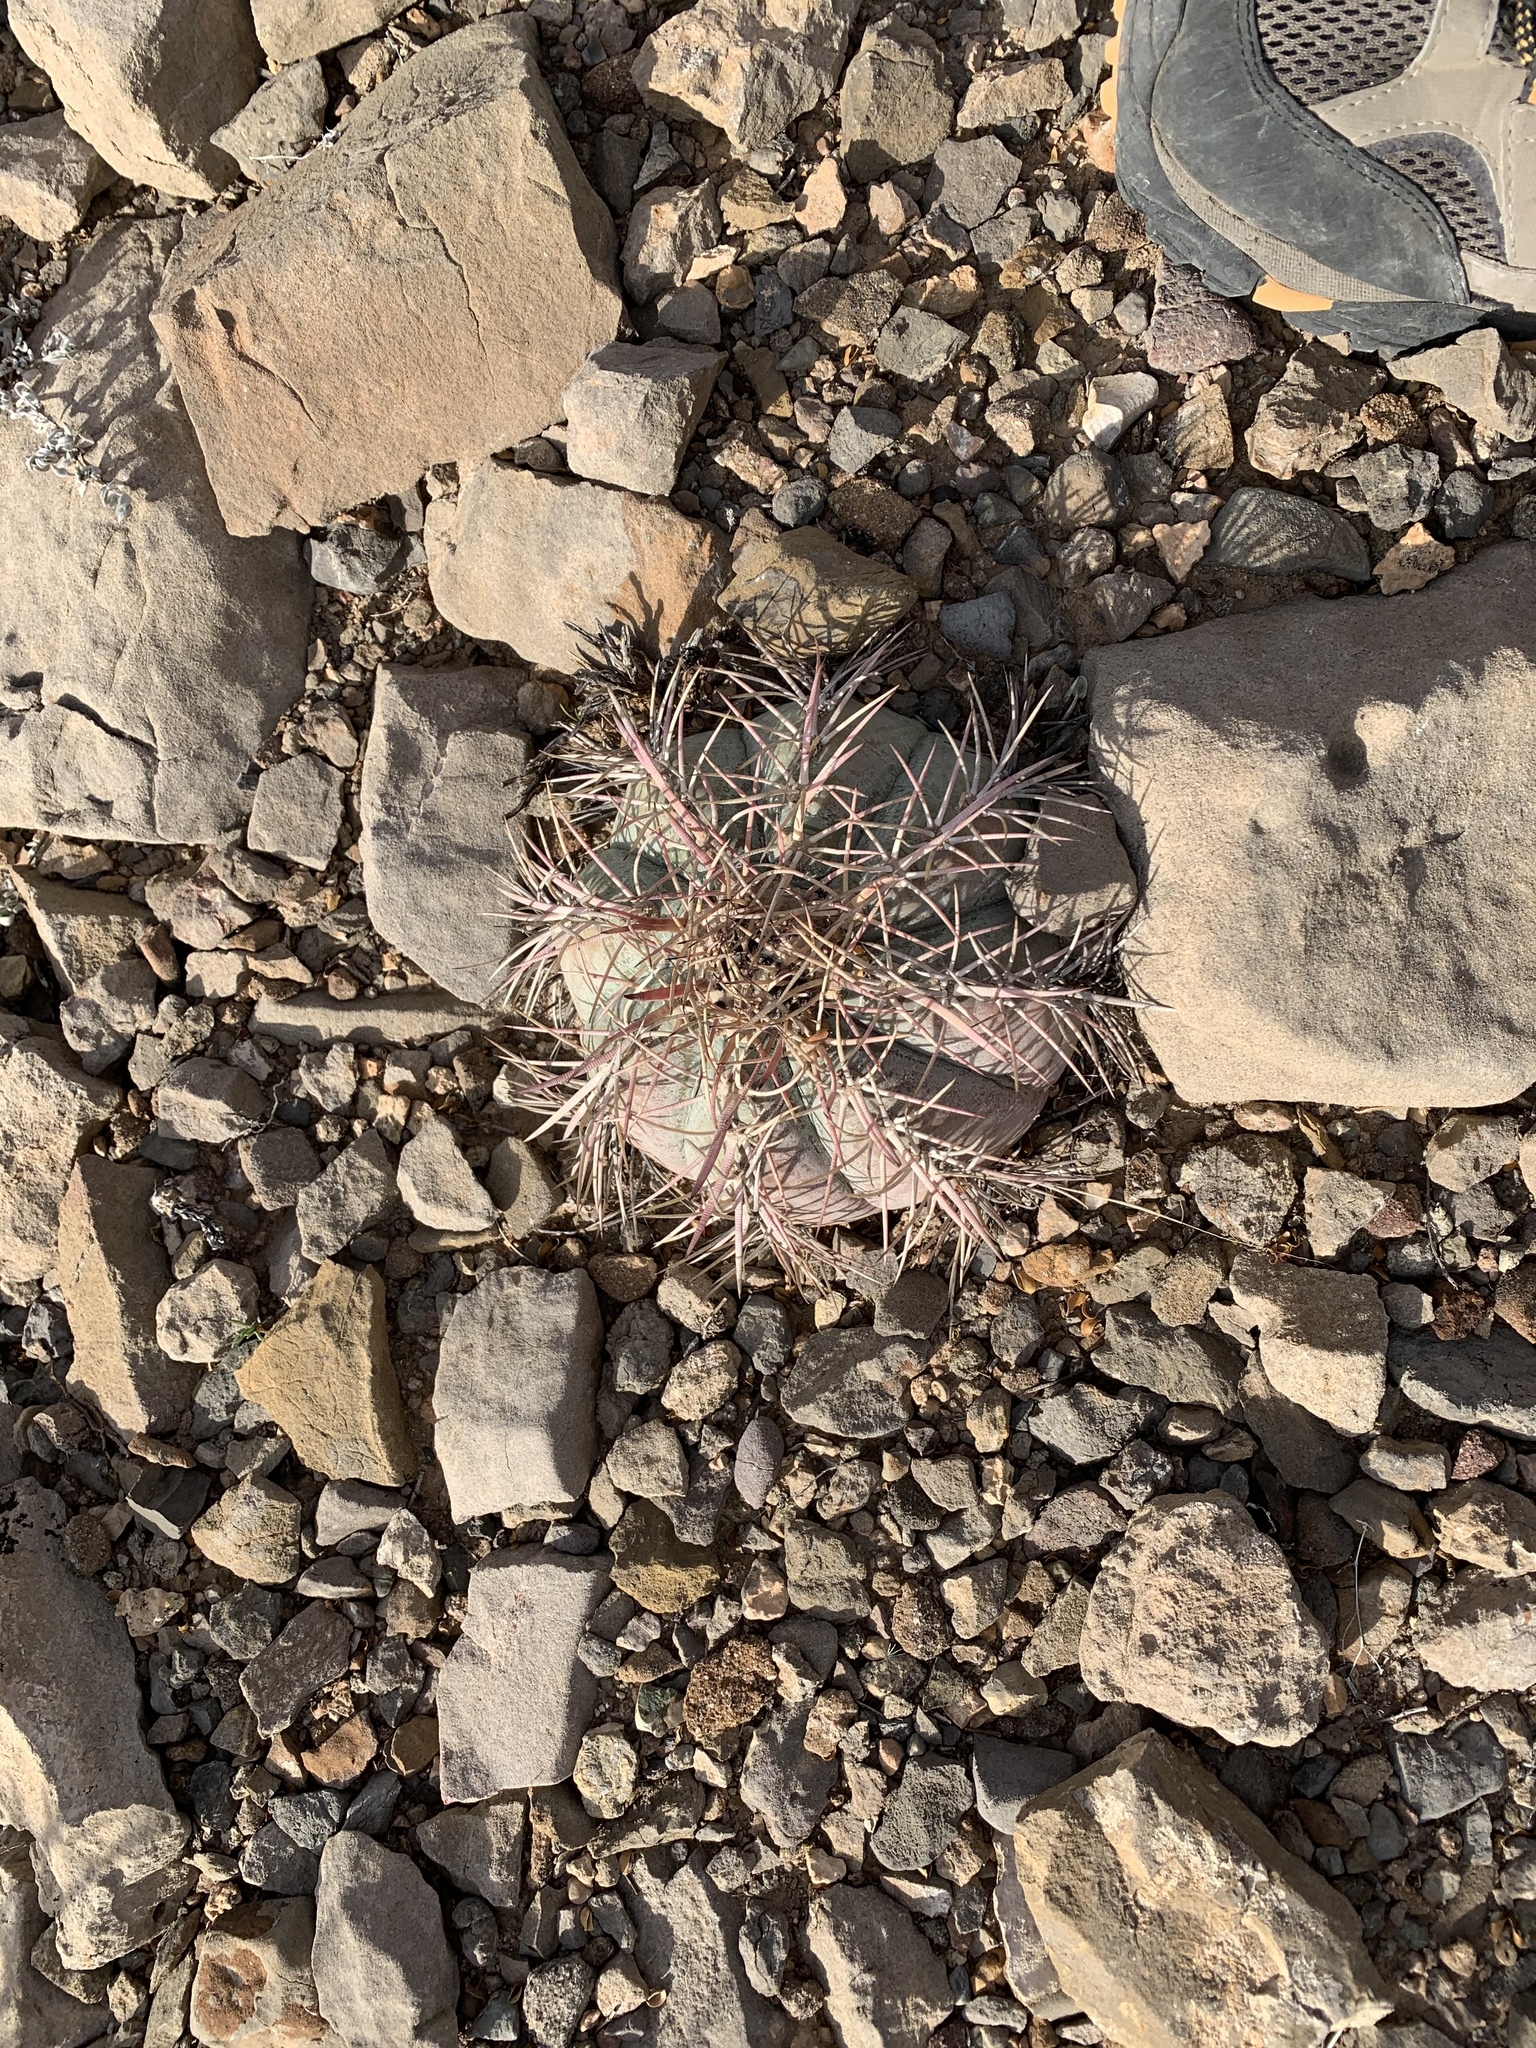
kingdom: Plantae
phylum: Tracheophyta
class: Magnoliopsida
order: Caryophyllales
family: Cactaceae
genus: Echinocactus
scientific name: Echinocactus horizonthalonius
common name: Devilshead
